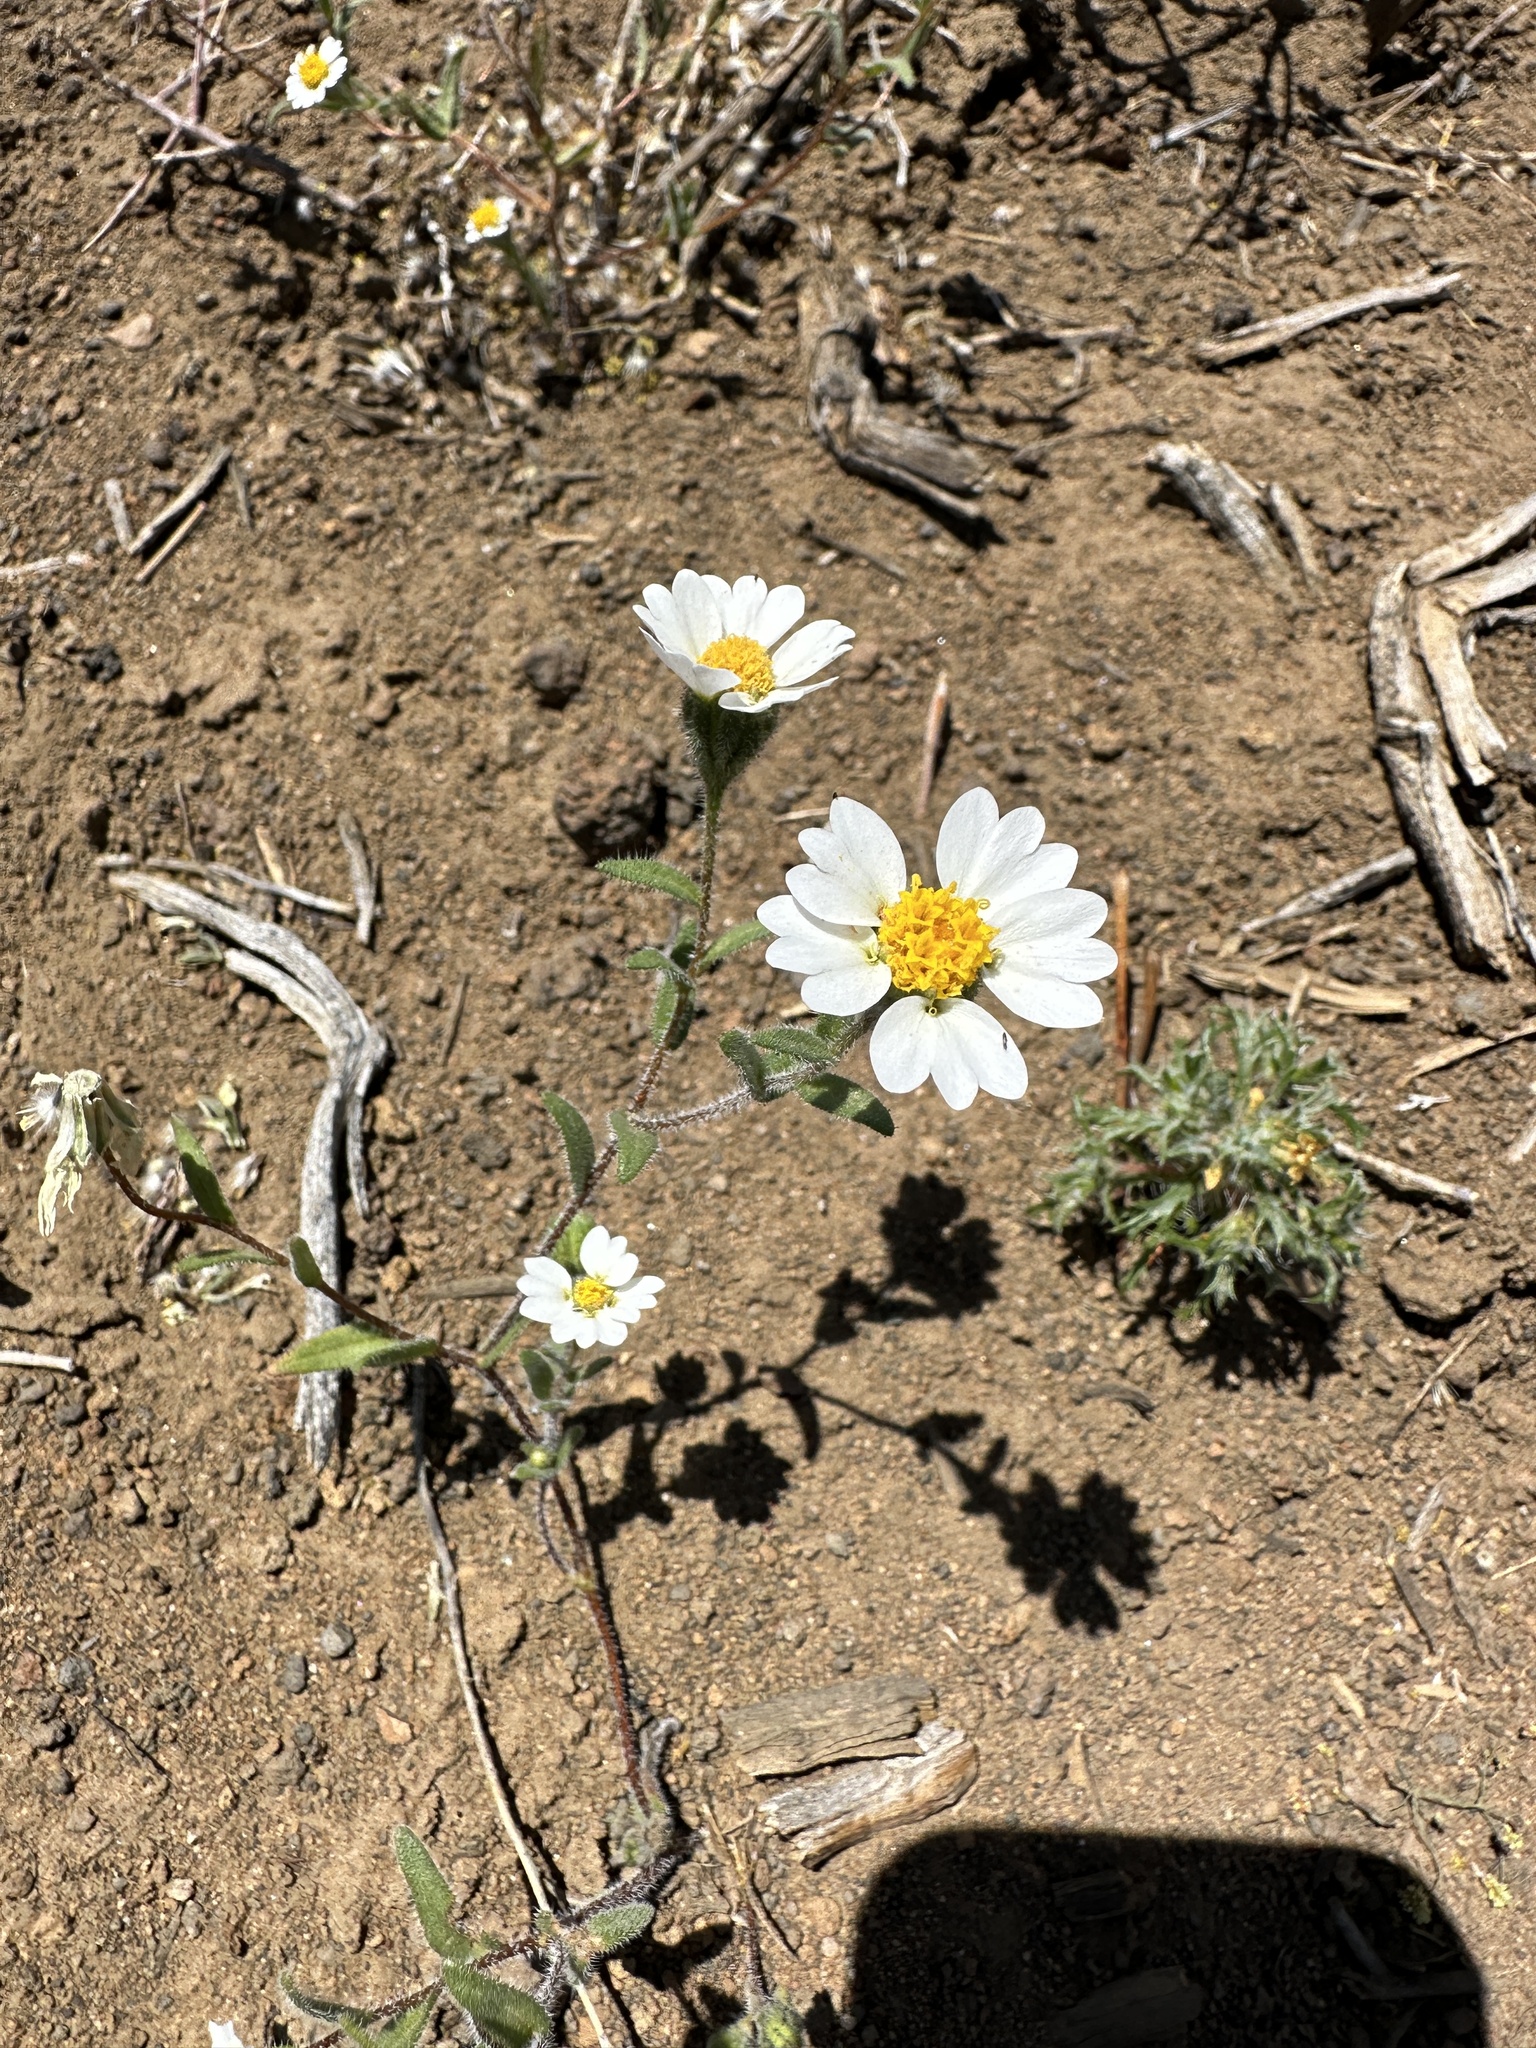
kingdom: Plantae
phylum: Tracheophyta
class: Magnoliopsida
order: Asterales
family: Asteraceae
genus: Layia
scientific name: Layia glandulosa
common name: White layia
